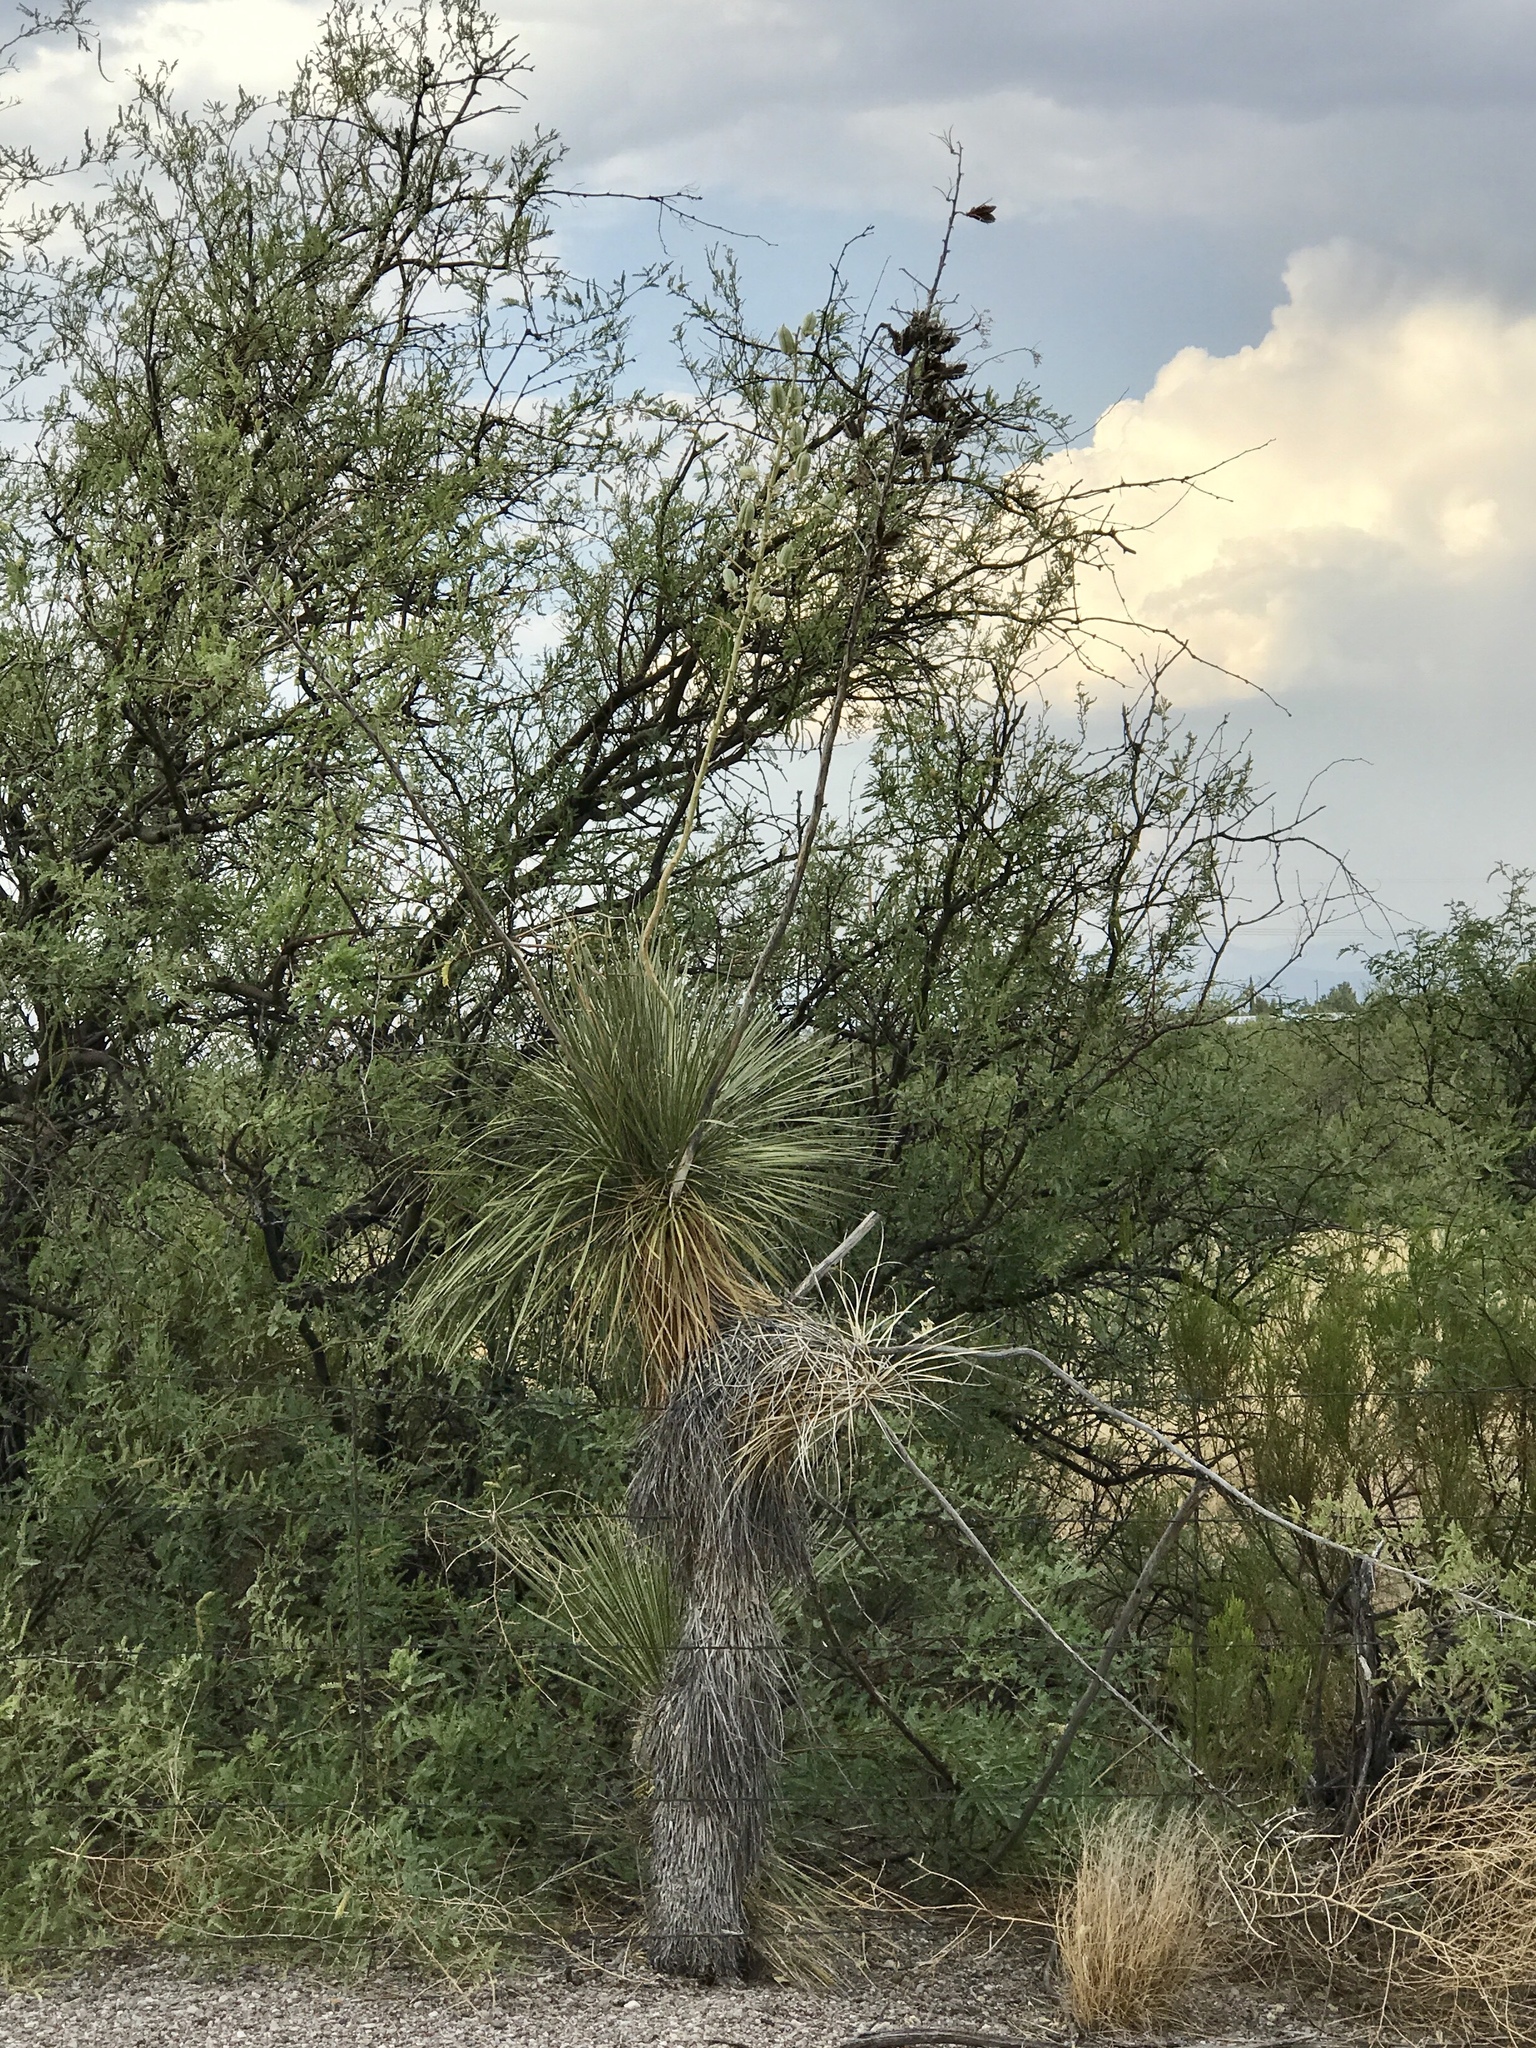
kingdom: Plantae
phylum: Tracheophyta
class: Liliopsida
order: Asparagales
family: Asparagaceae
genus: Yucca
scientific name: Yucca elata
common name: Palmella
